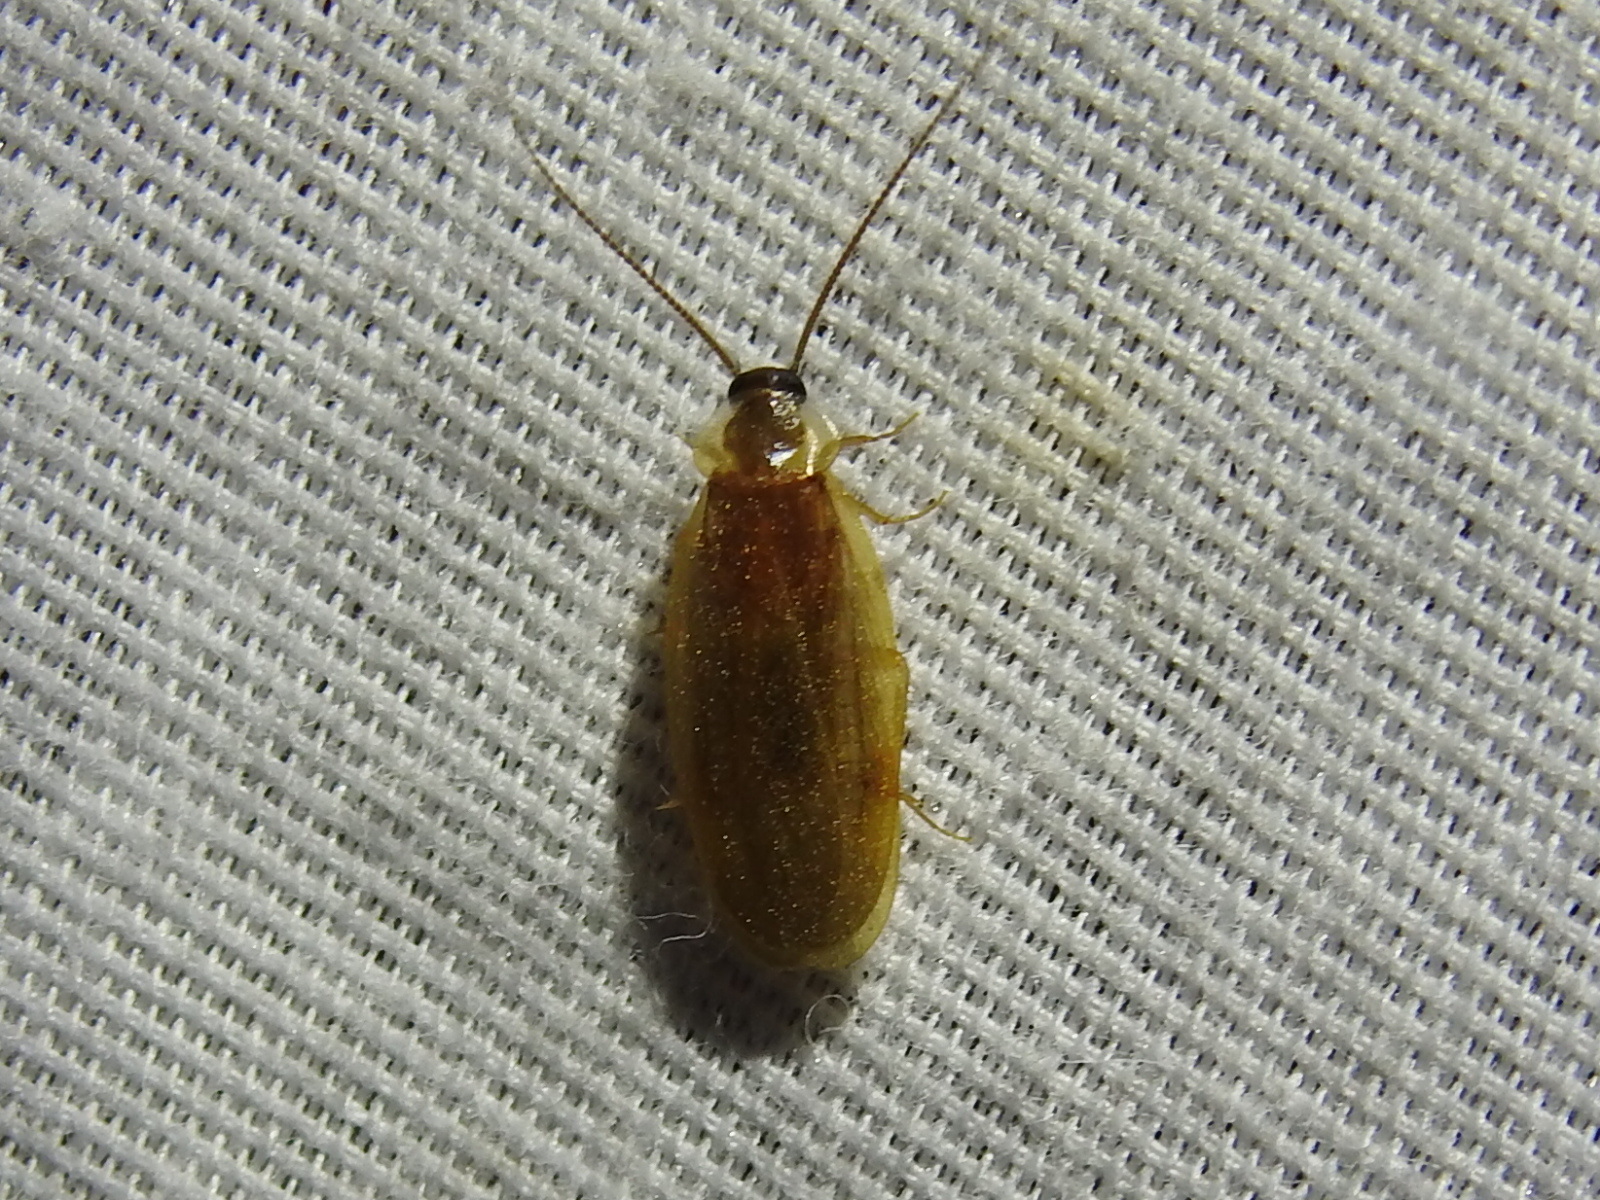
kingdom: Animalia
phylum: Arthropoda
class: Insecta
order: Blattodea
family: Corydiidae
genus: Compsodes
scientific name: Compsodes schwarzi
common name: Schwarz's hooded cockroach
